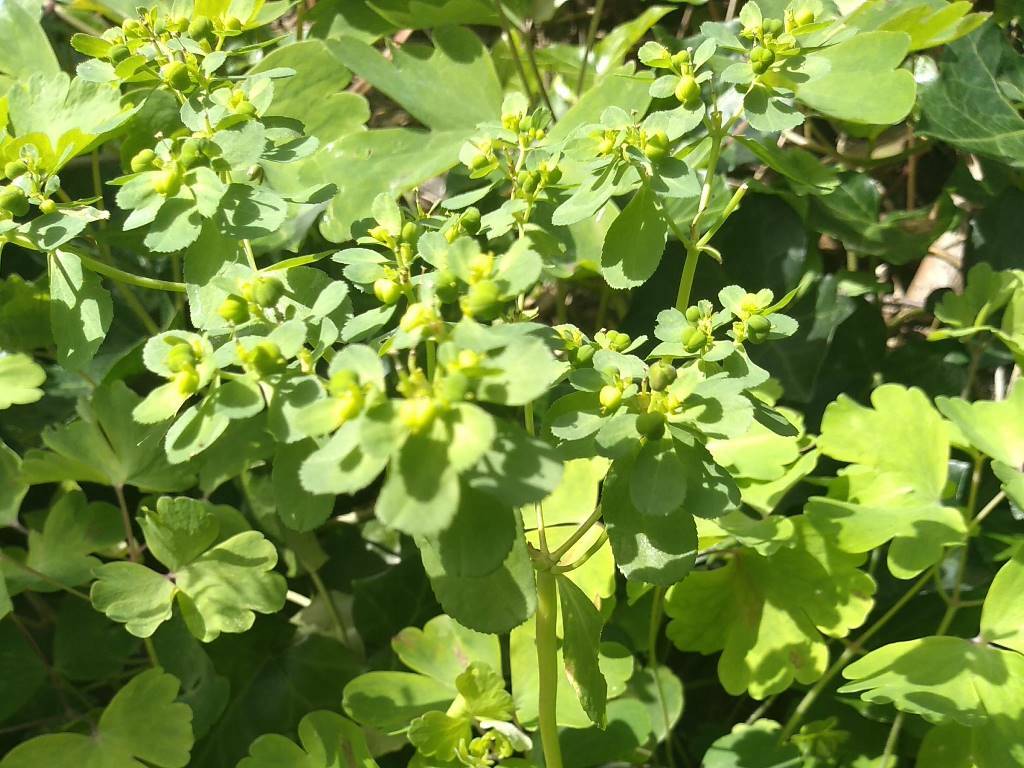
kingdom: Plantae
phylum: Tracheophyta
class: Magnoliopsida
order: Malpighiales
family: Euphorbiaceae
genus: Euphorbia
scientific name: Euphorbia helioscopia
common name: Sun spurge
